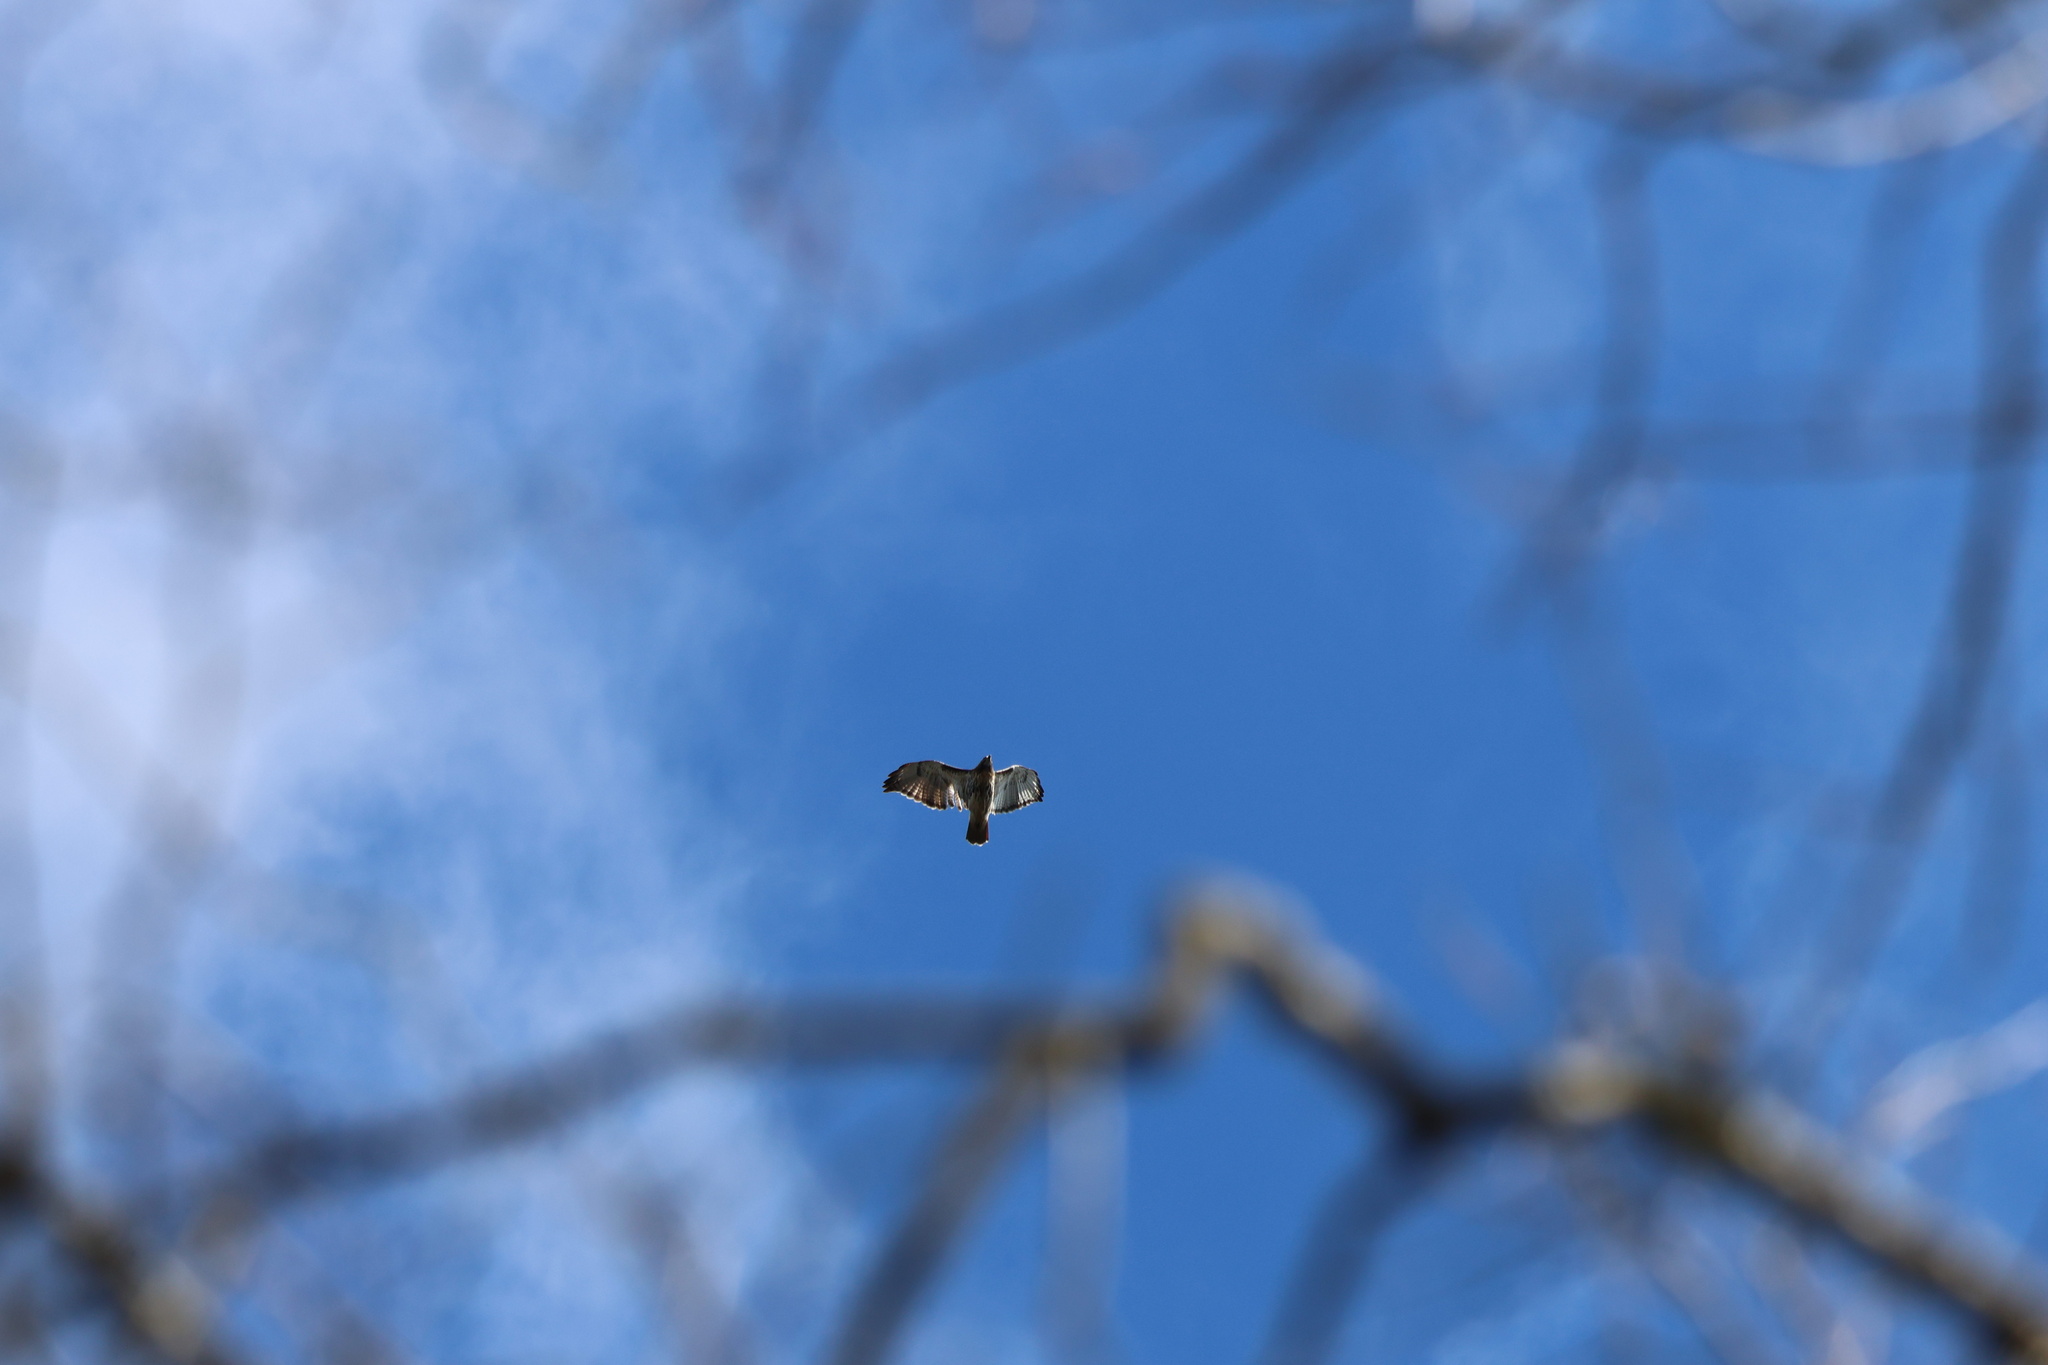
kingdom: Animalia
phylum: Chordata
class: Aves
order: Accipitriformes
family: Accipitridae
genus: Buteo
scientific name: Buteo jamaicensis
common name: Red-tailed hawk
